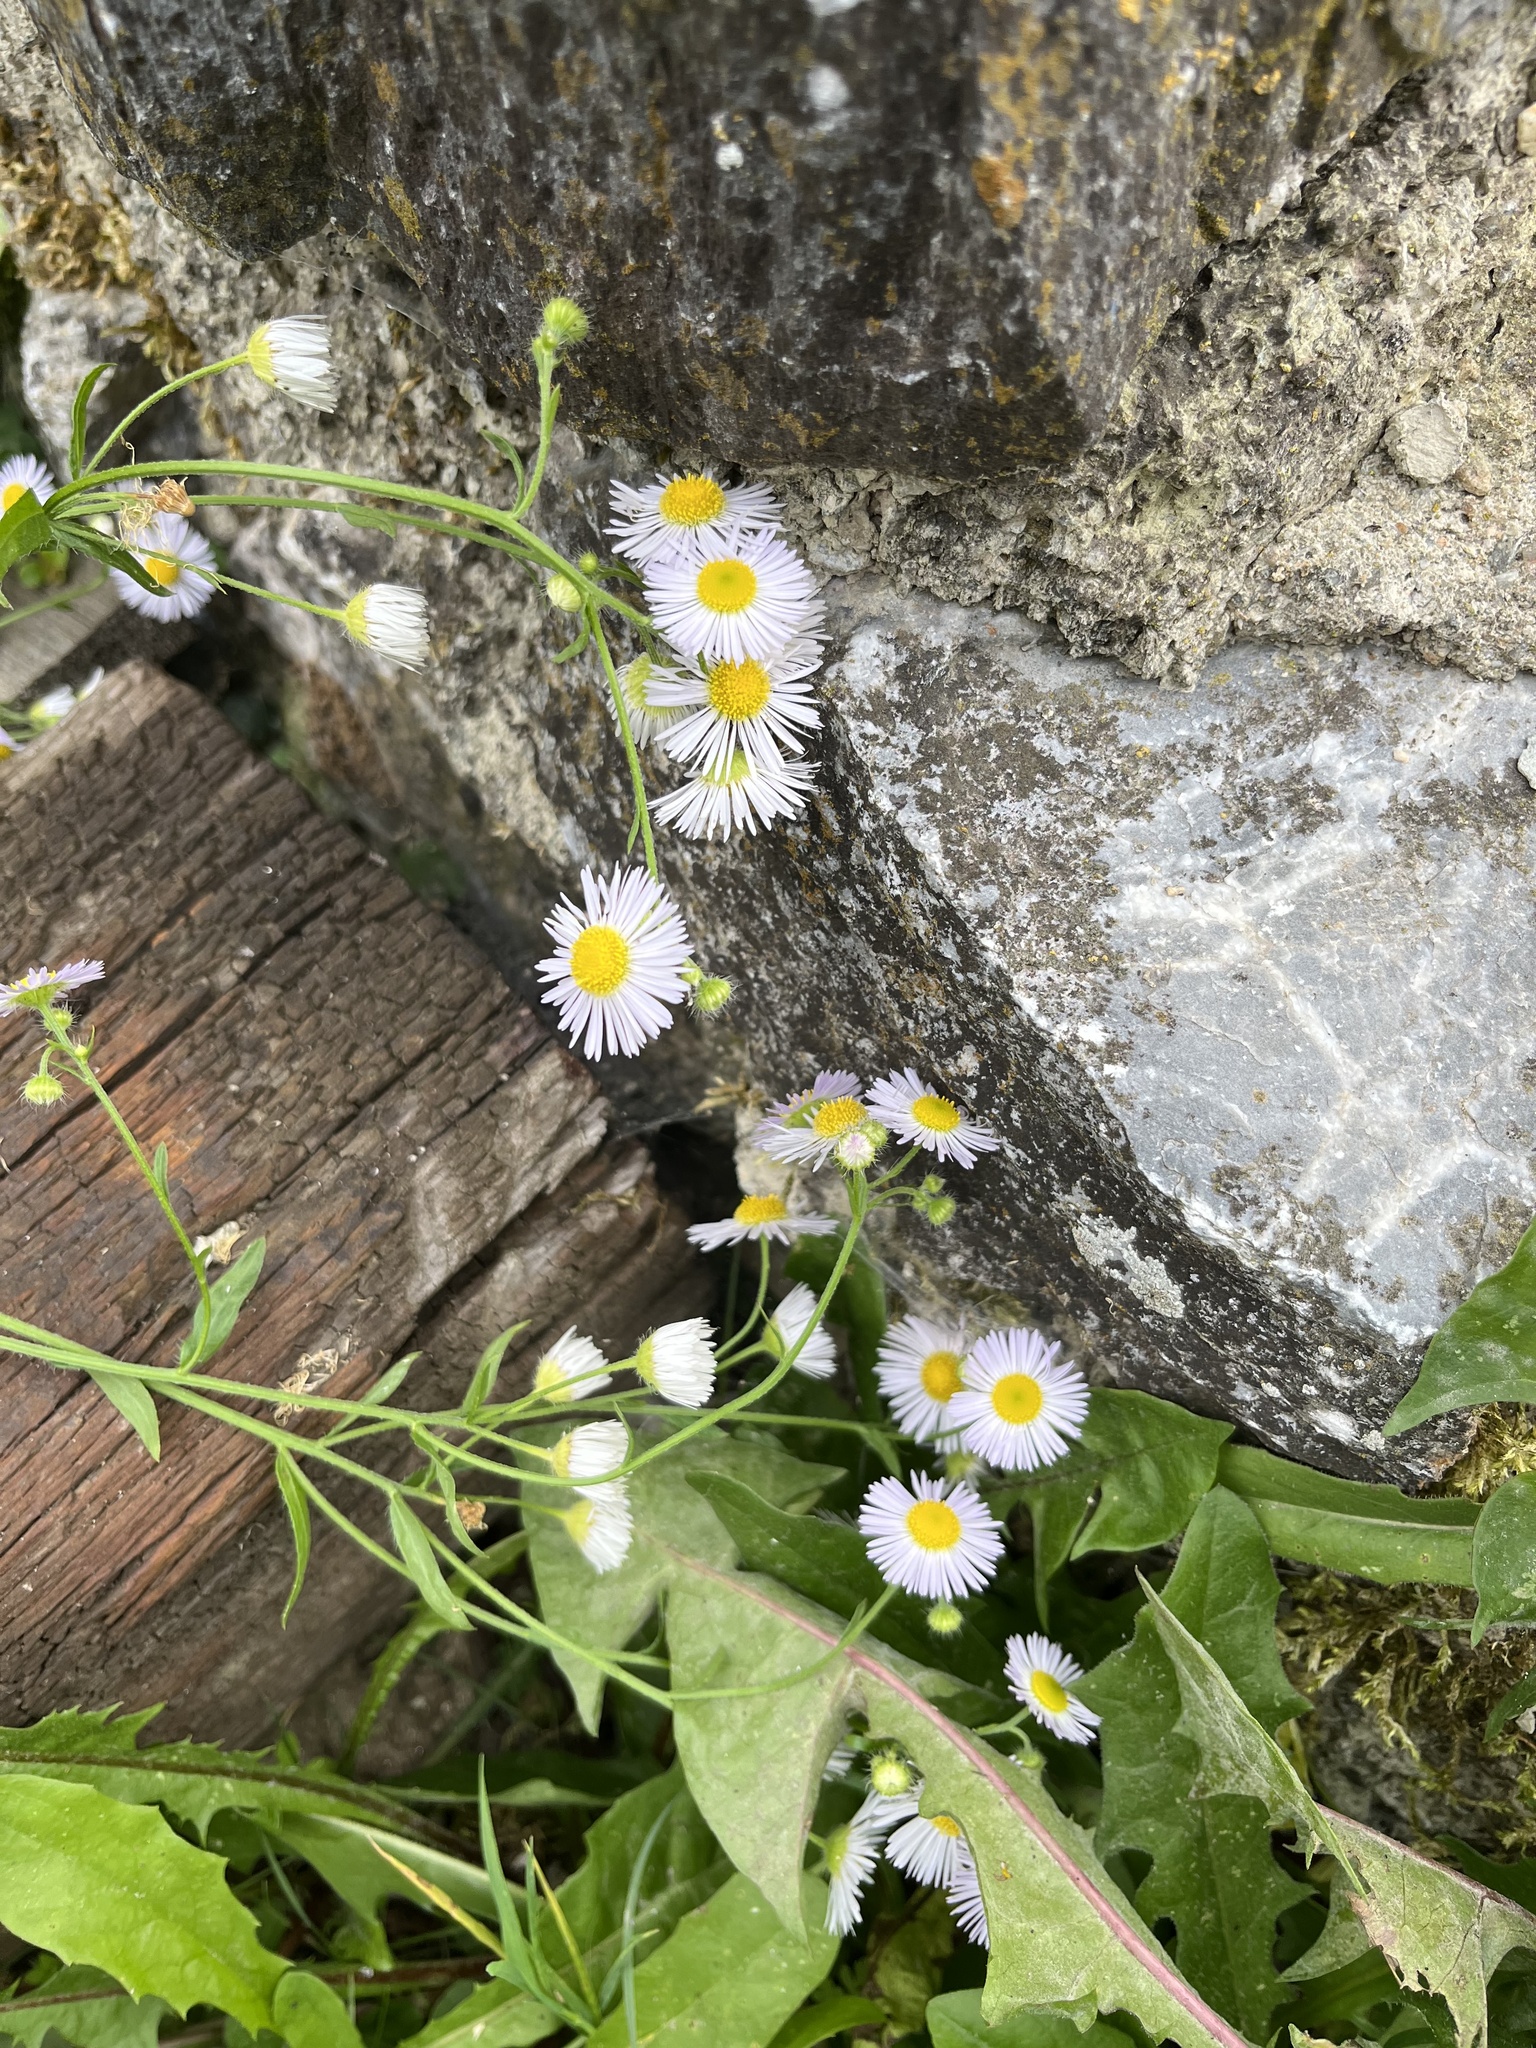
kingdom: Plantae
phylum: Tracheophyta
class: Magnoliopsida
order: Asterales
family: Asteraceae
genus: Erigeron
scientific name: Erigeron annuus
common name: Tall fleabane
